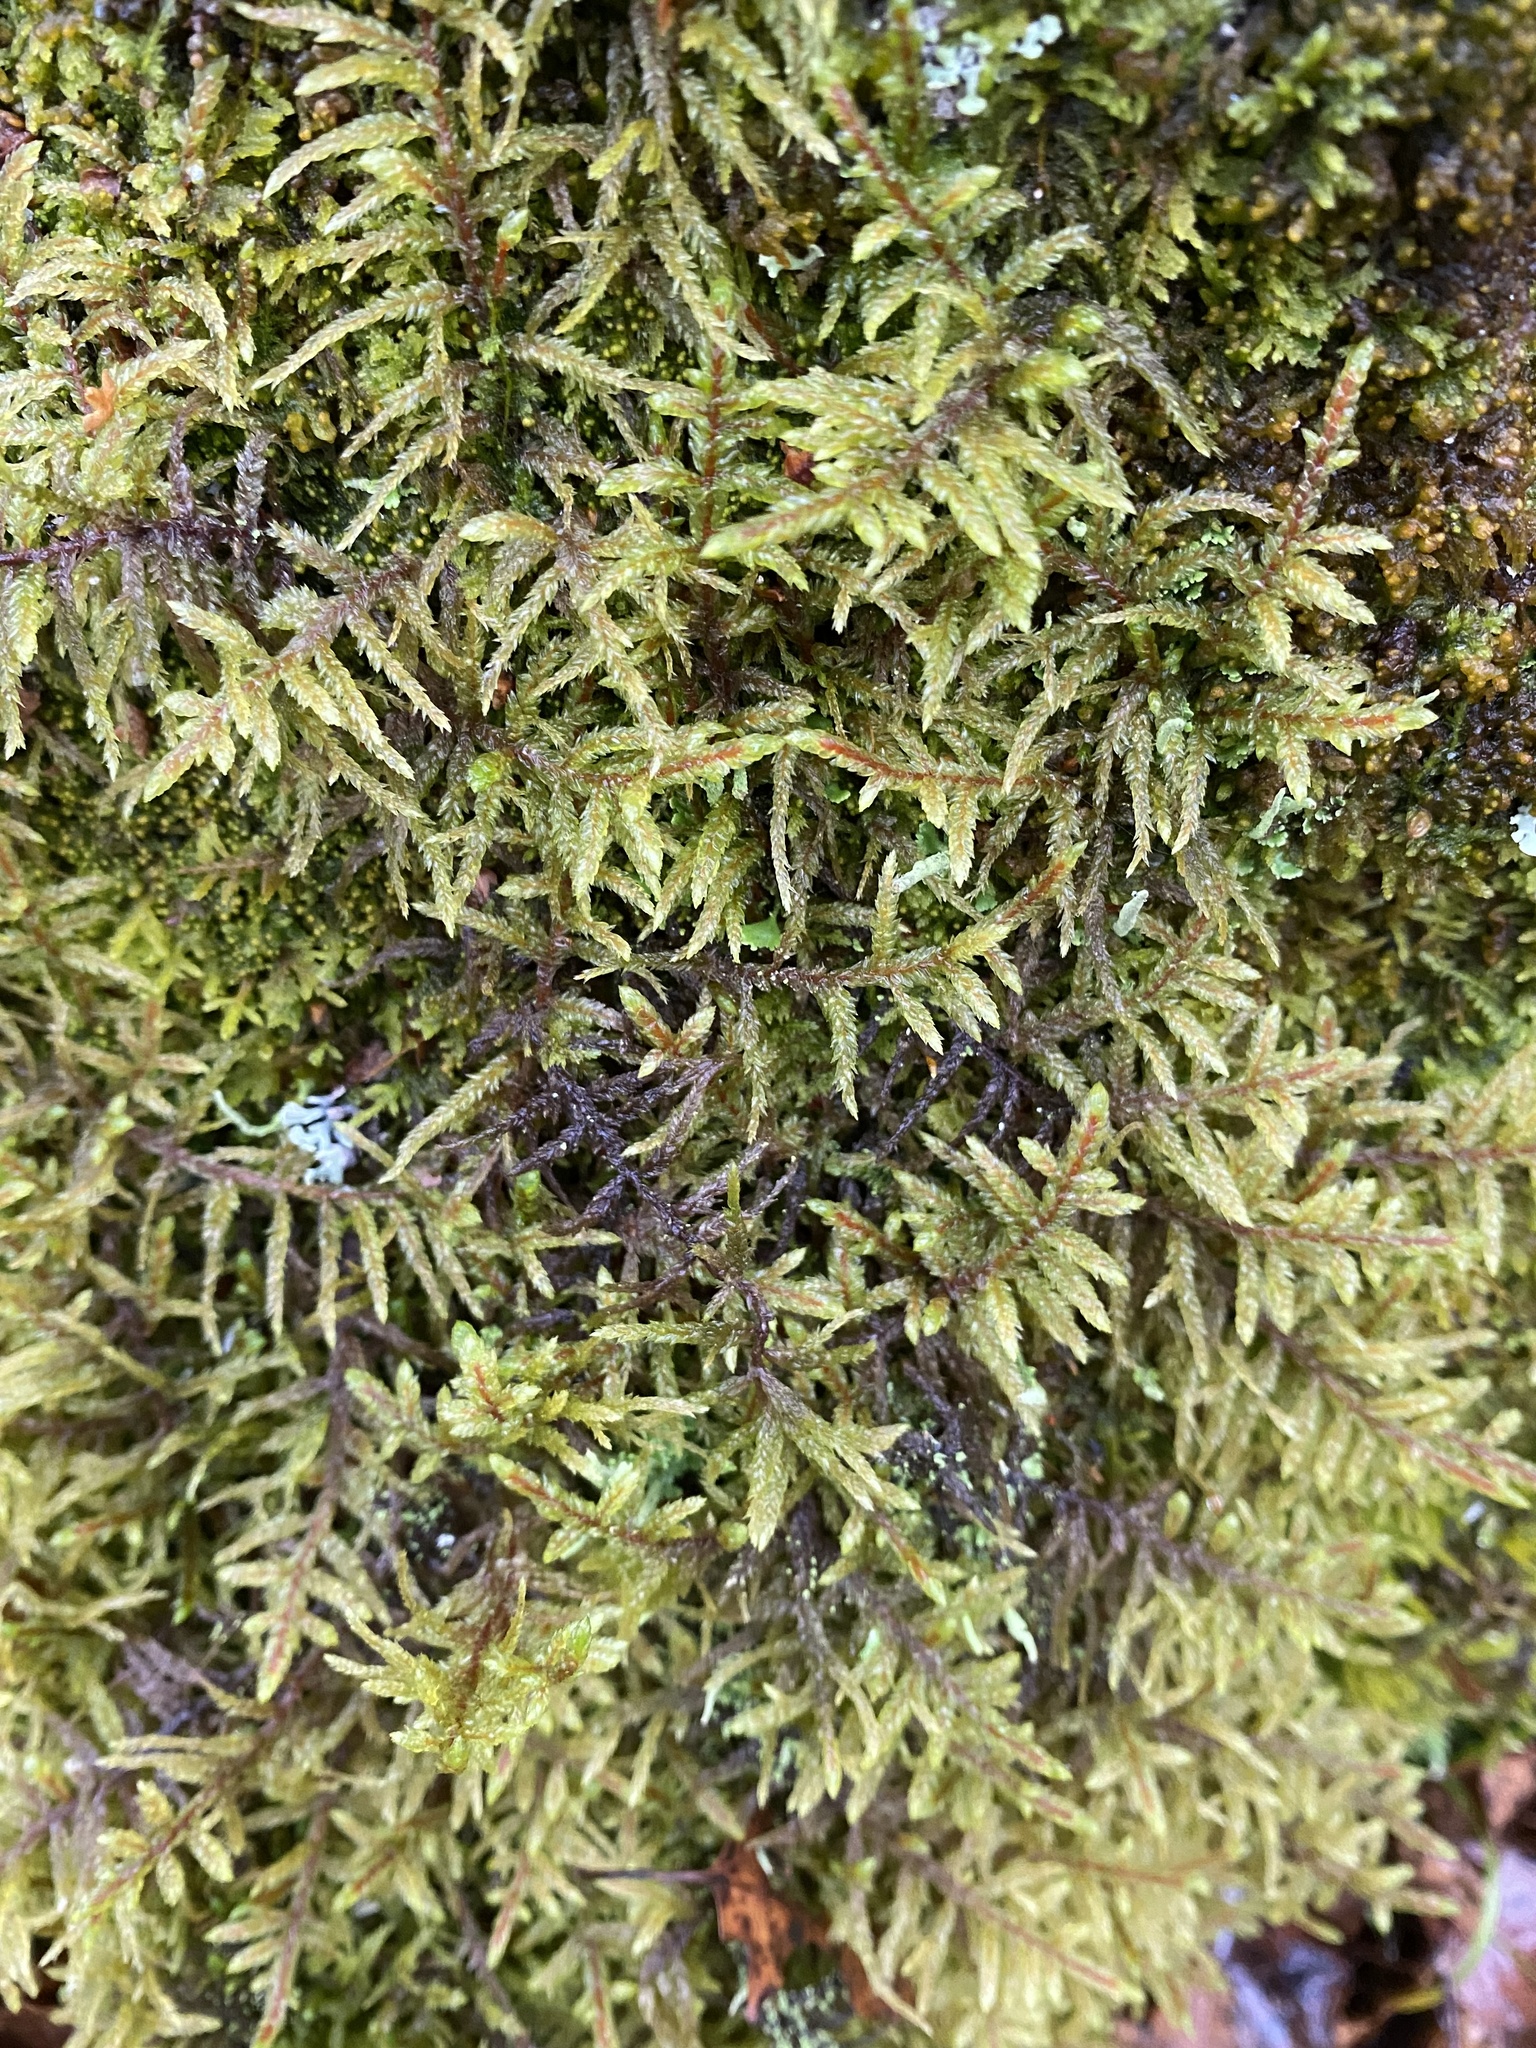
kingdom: Plantae
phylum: Bryophyta
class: Bryopsida
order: Hypnales
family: Hylocomiaceae
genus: Pleurozium
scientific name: Pleurozium schreberi
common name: Red-stemmed feather moss
